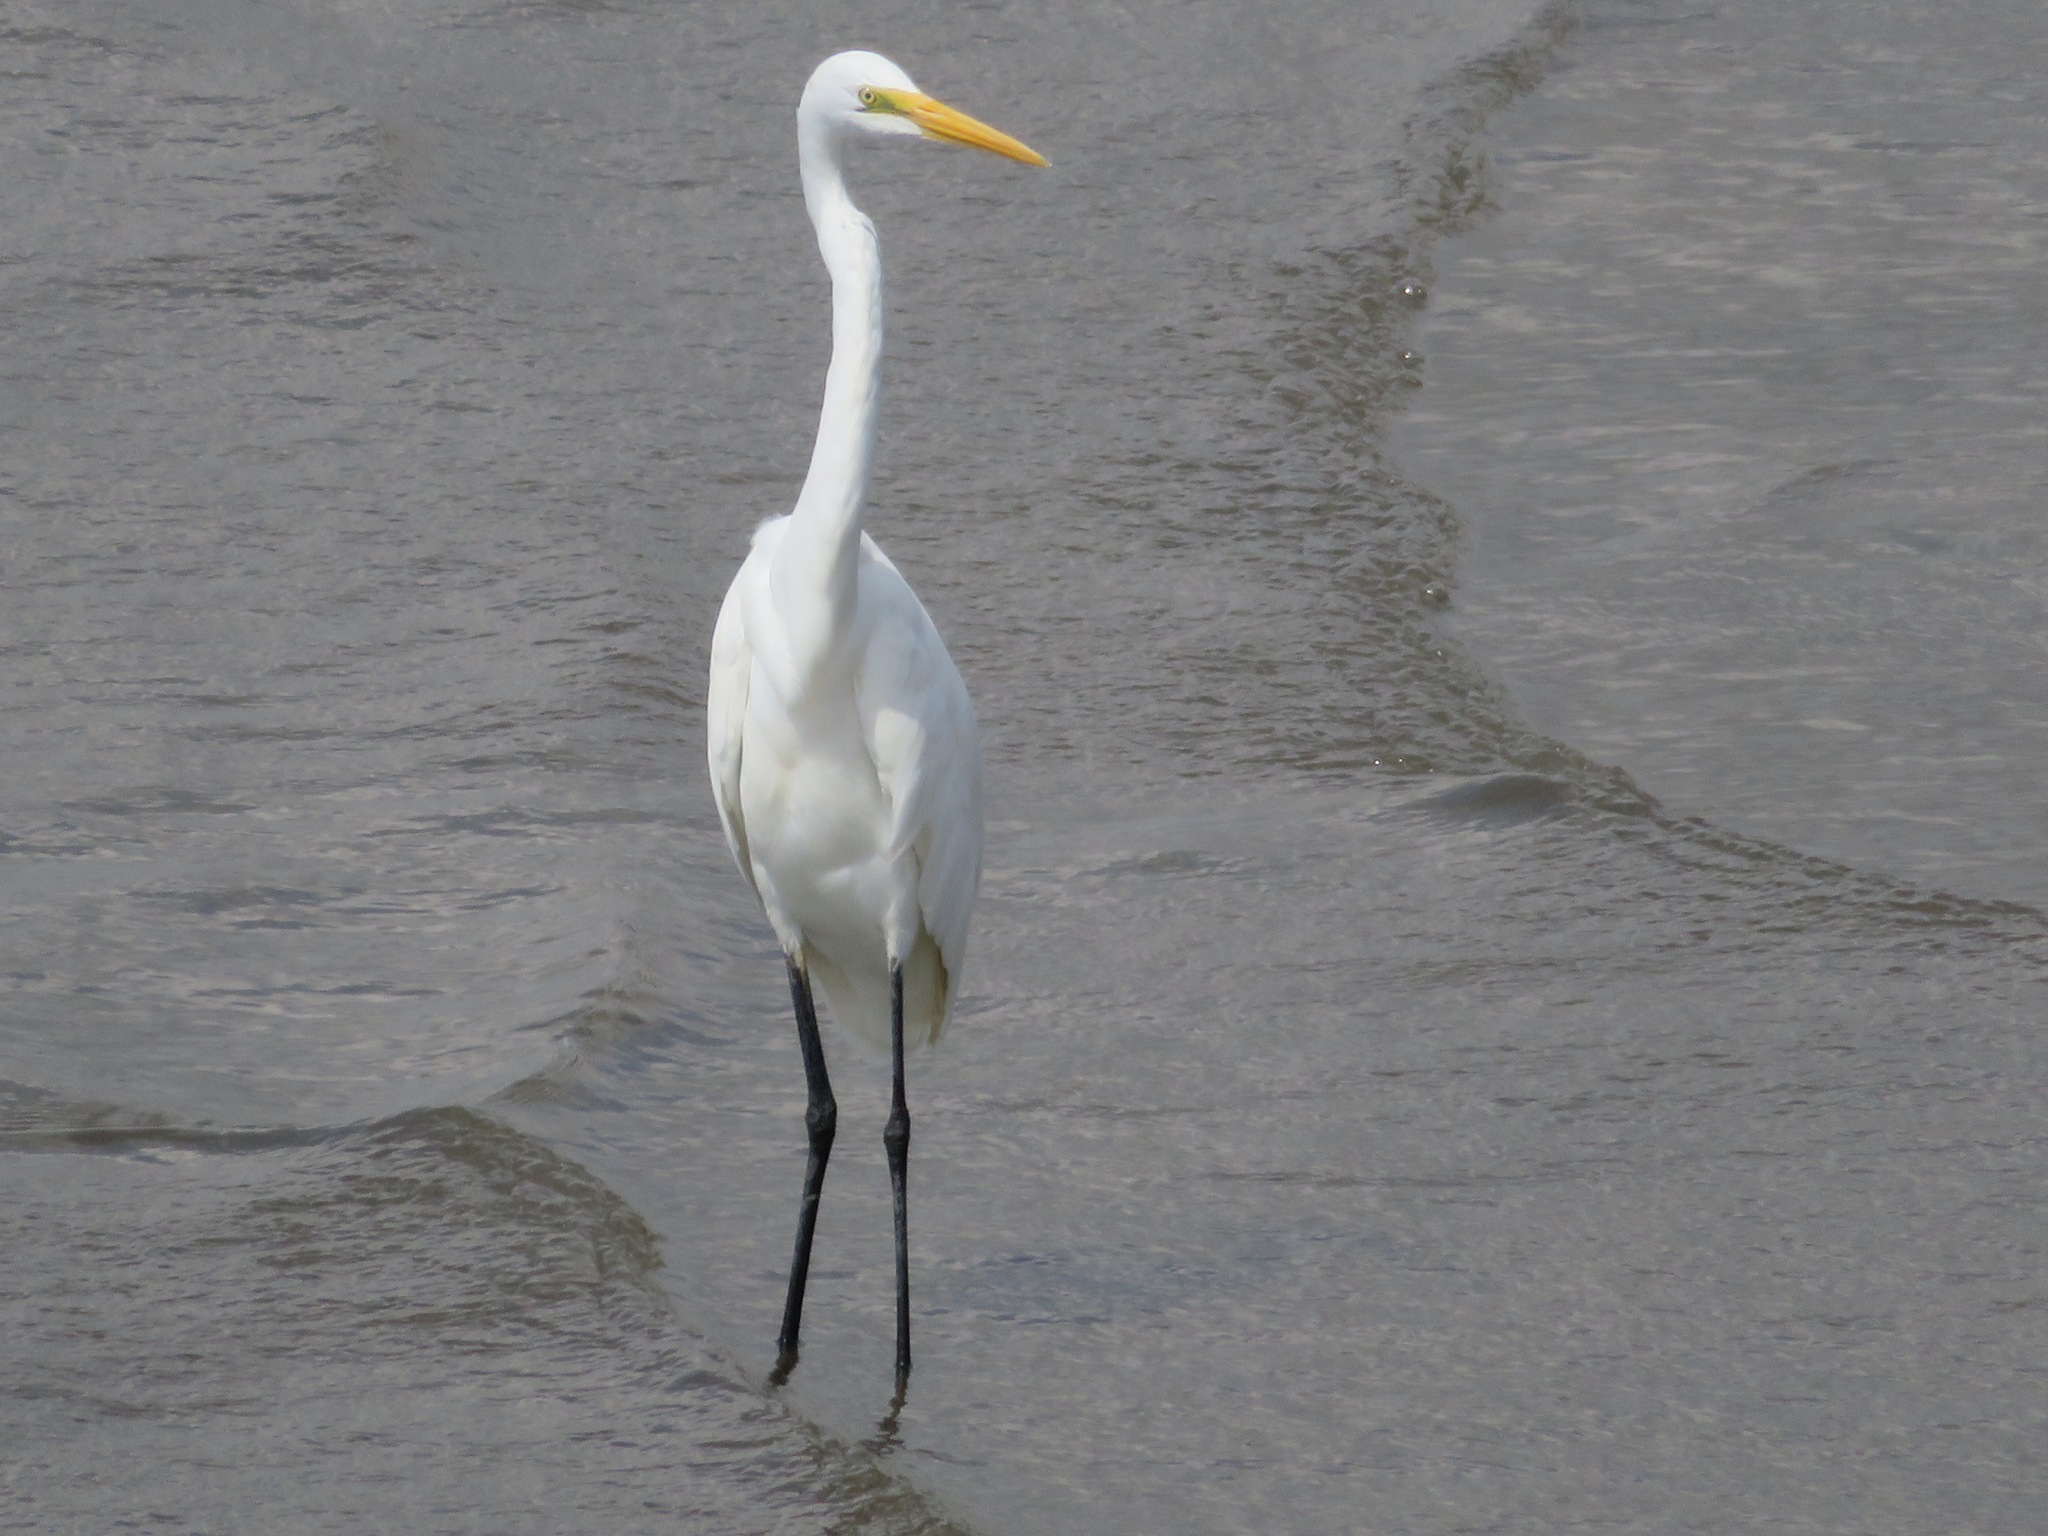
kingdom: Animalia
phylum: Chordata
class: Aves
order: Pelecaniformes
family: Ardeidae
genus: Ardea
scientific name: Ardea alba
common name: Great egret
